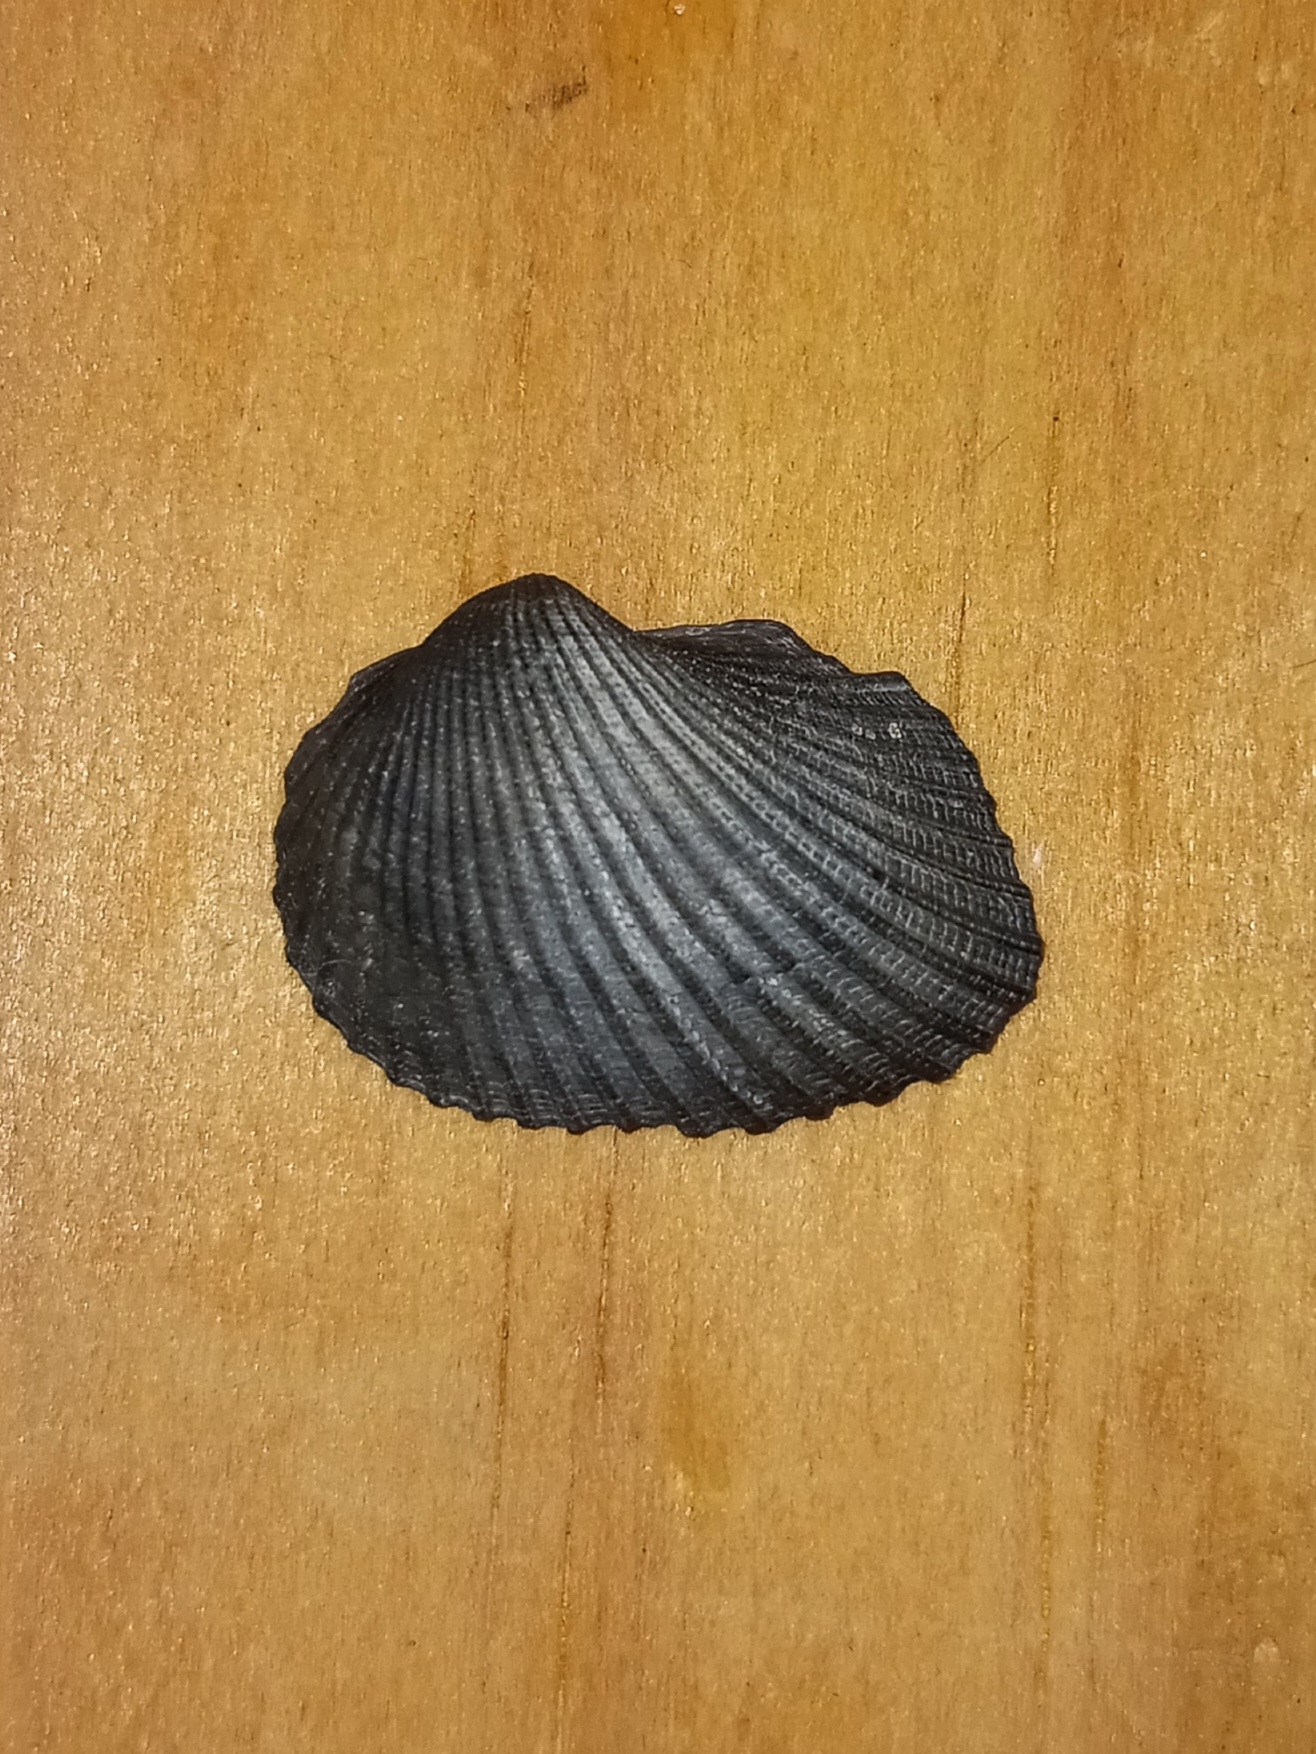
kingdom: Animalia
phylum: Mollusca
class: Bivalvia
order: Arcida
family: Arcidae
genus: Anadara
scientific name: Anadara transversa
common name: Transverse ark
